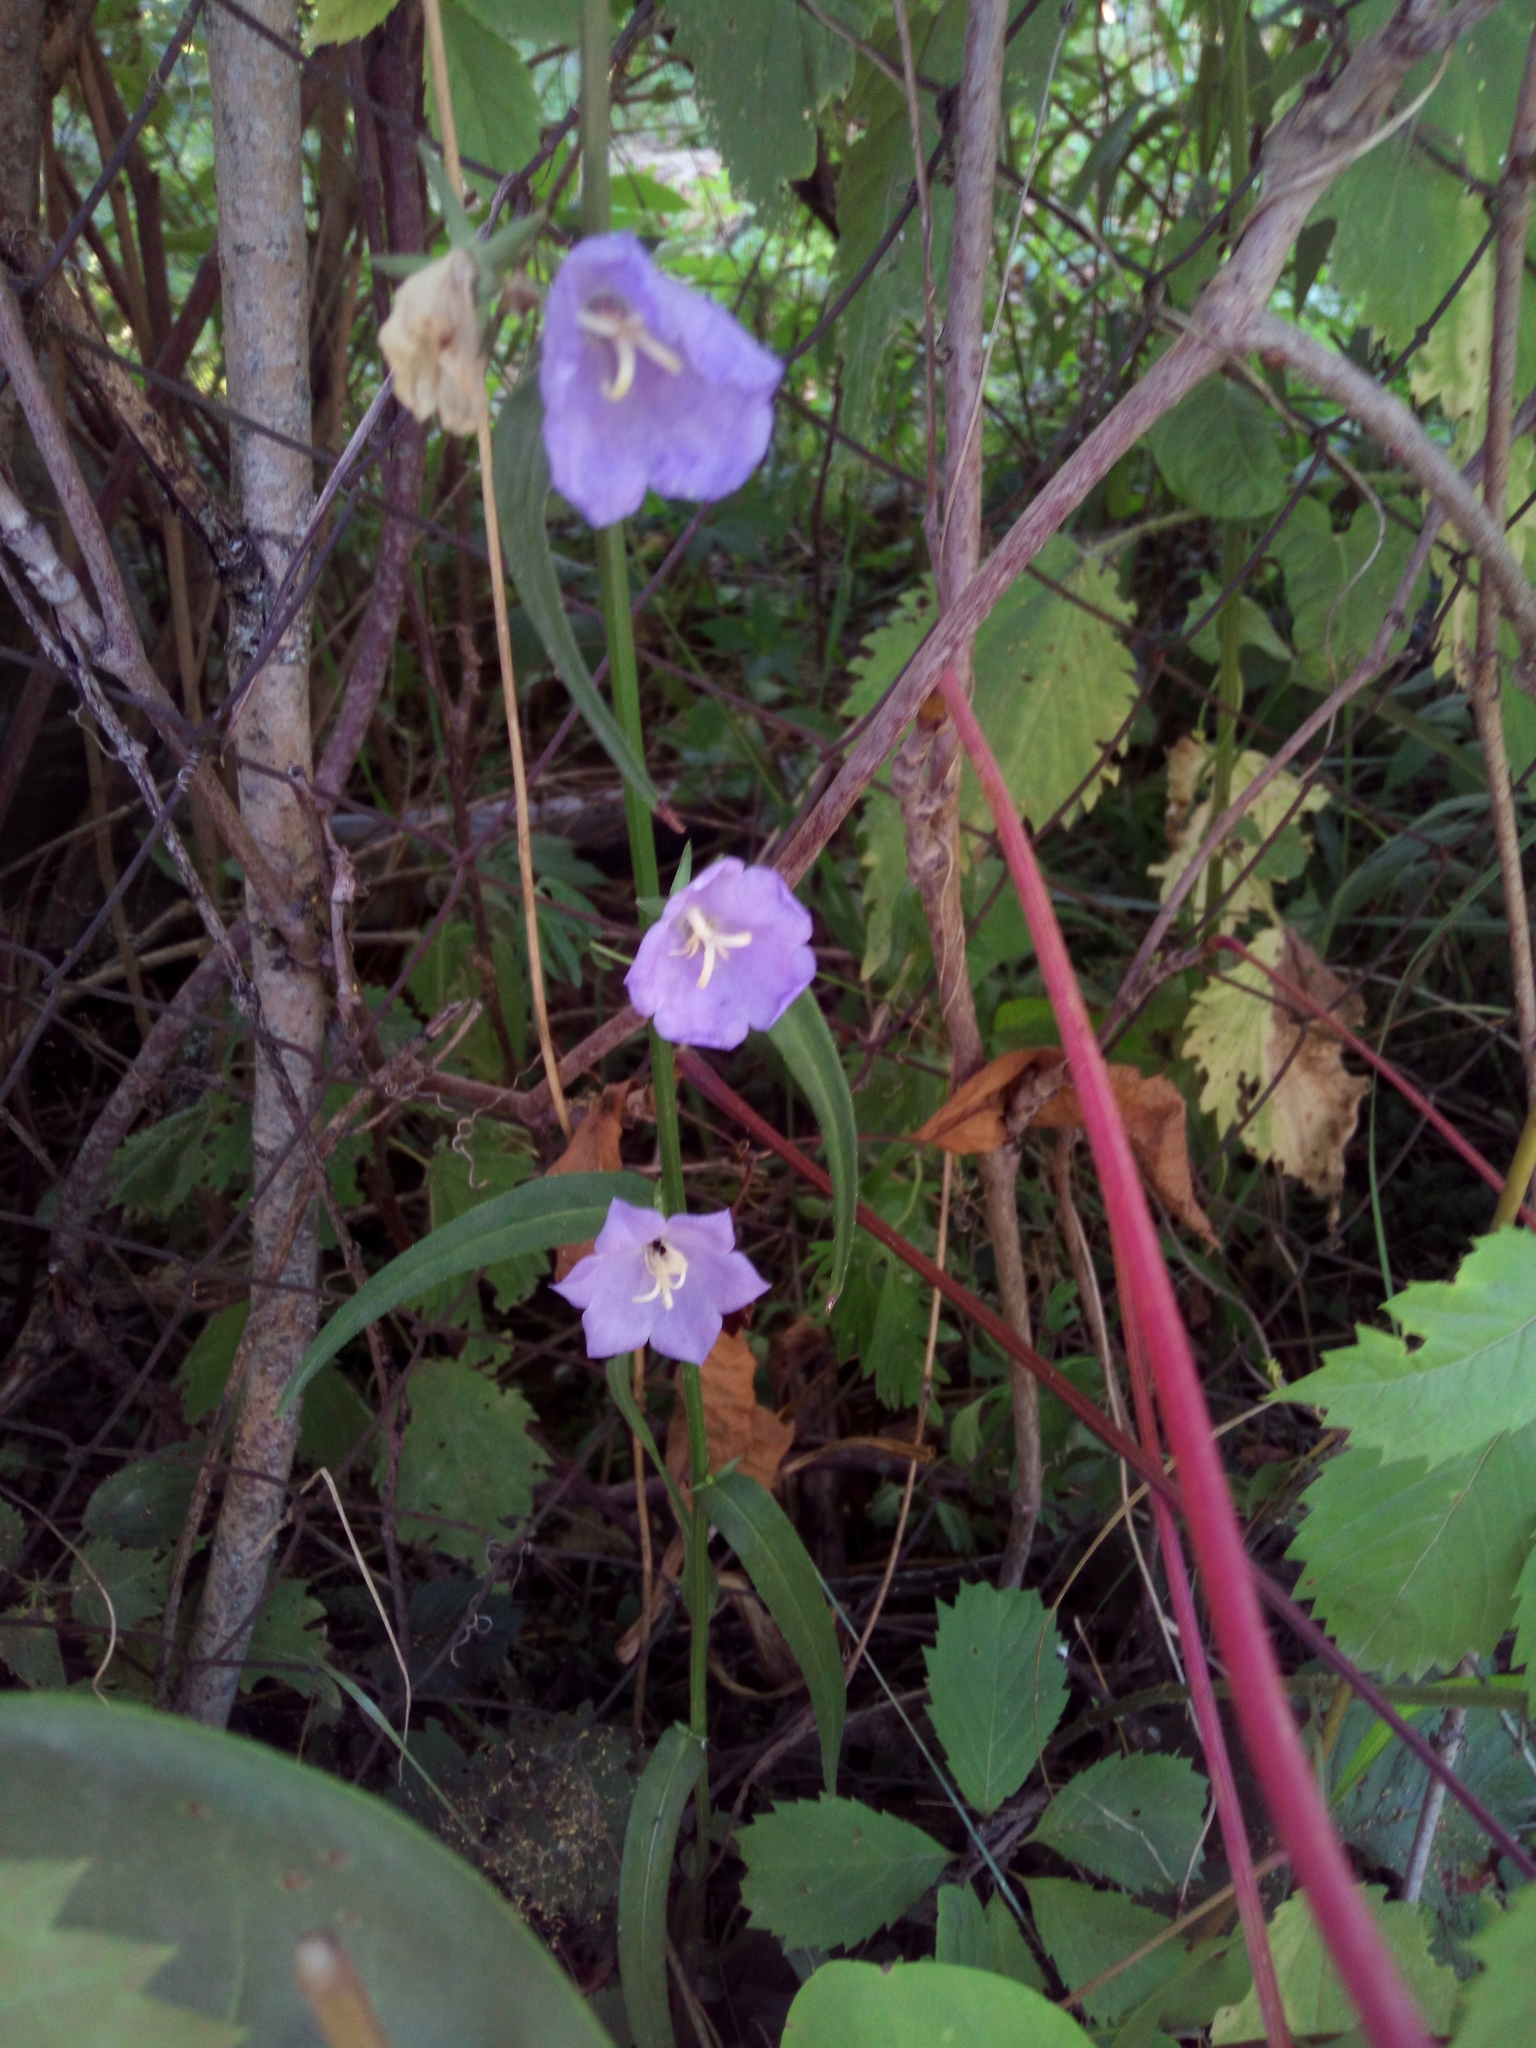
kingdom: Plantae
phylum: Tracheophyta
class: Magnoliopsida
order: Asterales
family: Campanulaceae
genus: Campanula
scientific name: Campanula persicifolia
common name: Peach-leaved bellflower
